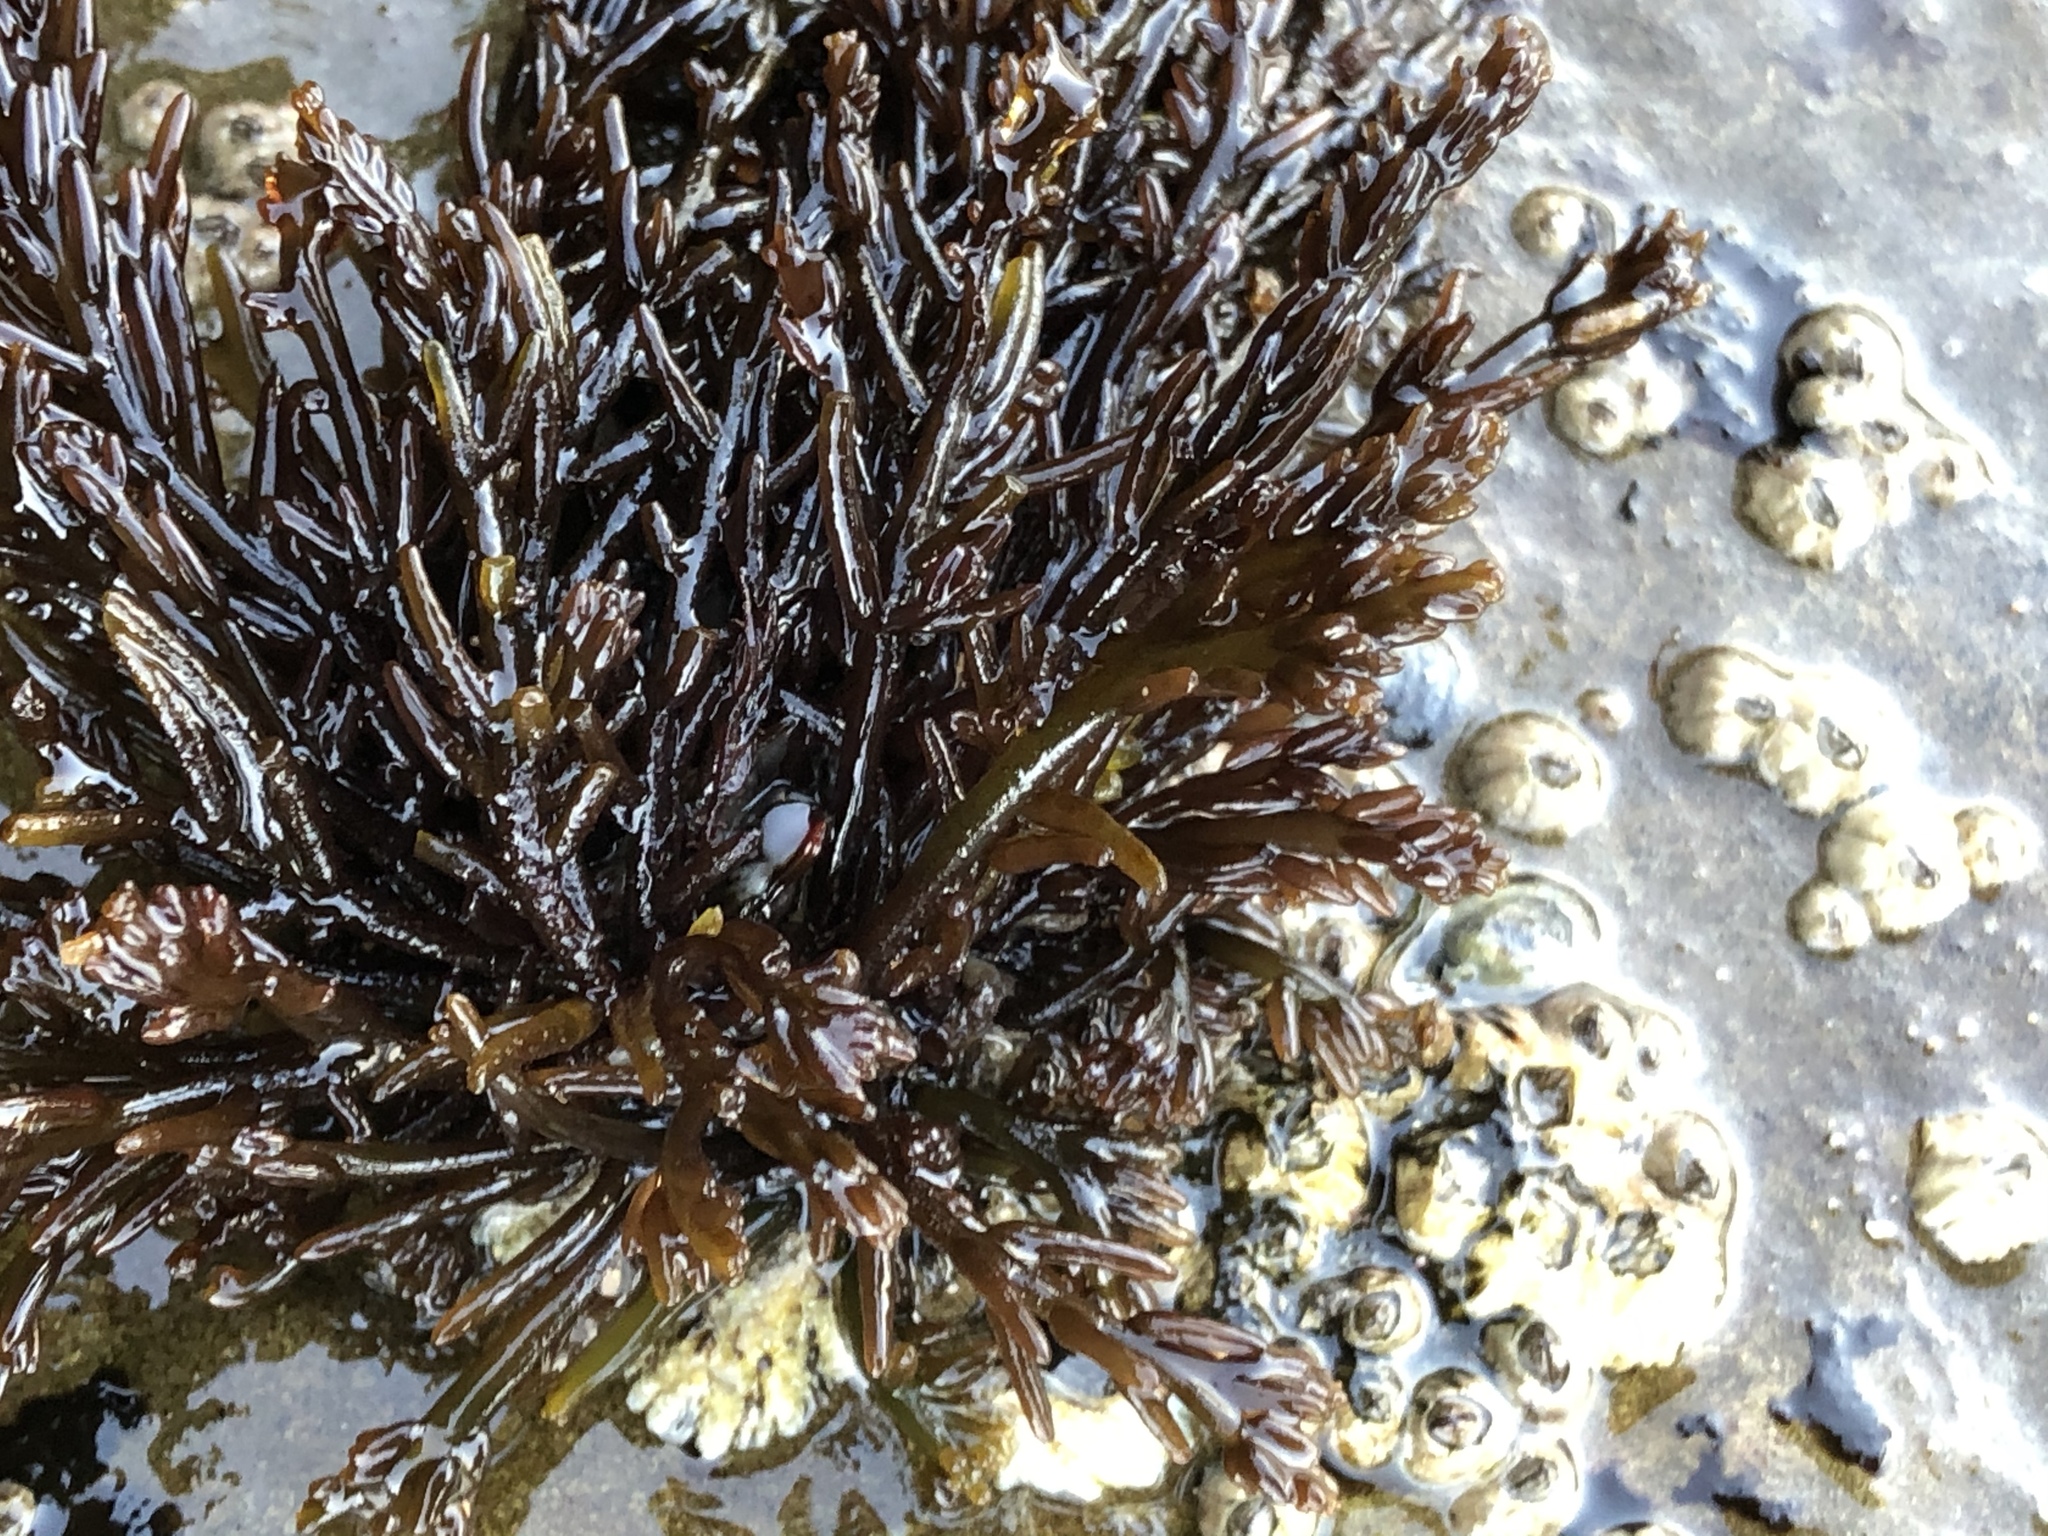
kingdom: Plantae
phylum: Rhodophyta
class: Florideophyceae
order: Rhodymeniales
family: Champiaceae
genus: Neogastroclonium
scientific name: Neogastroclonium subarticulatum
